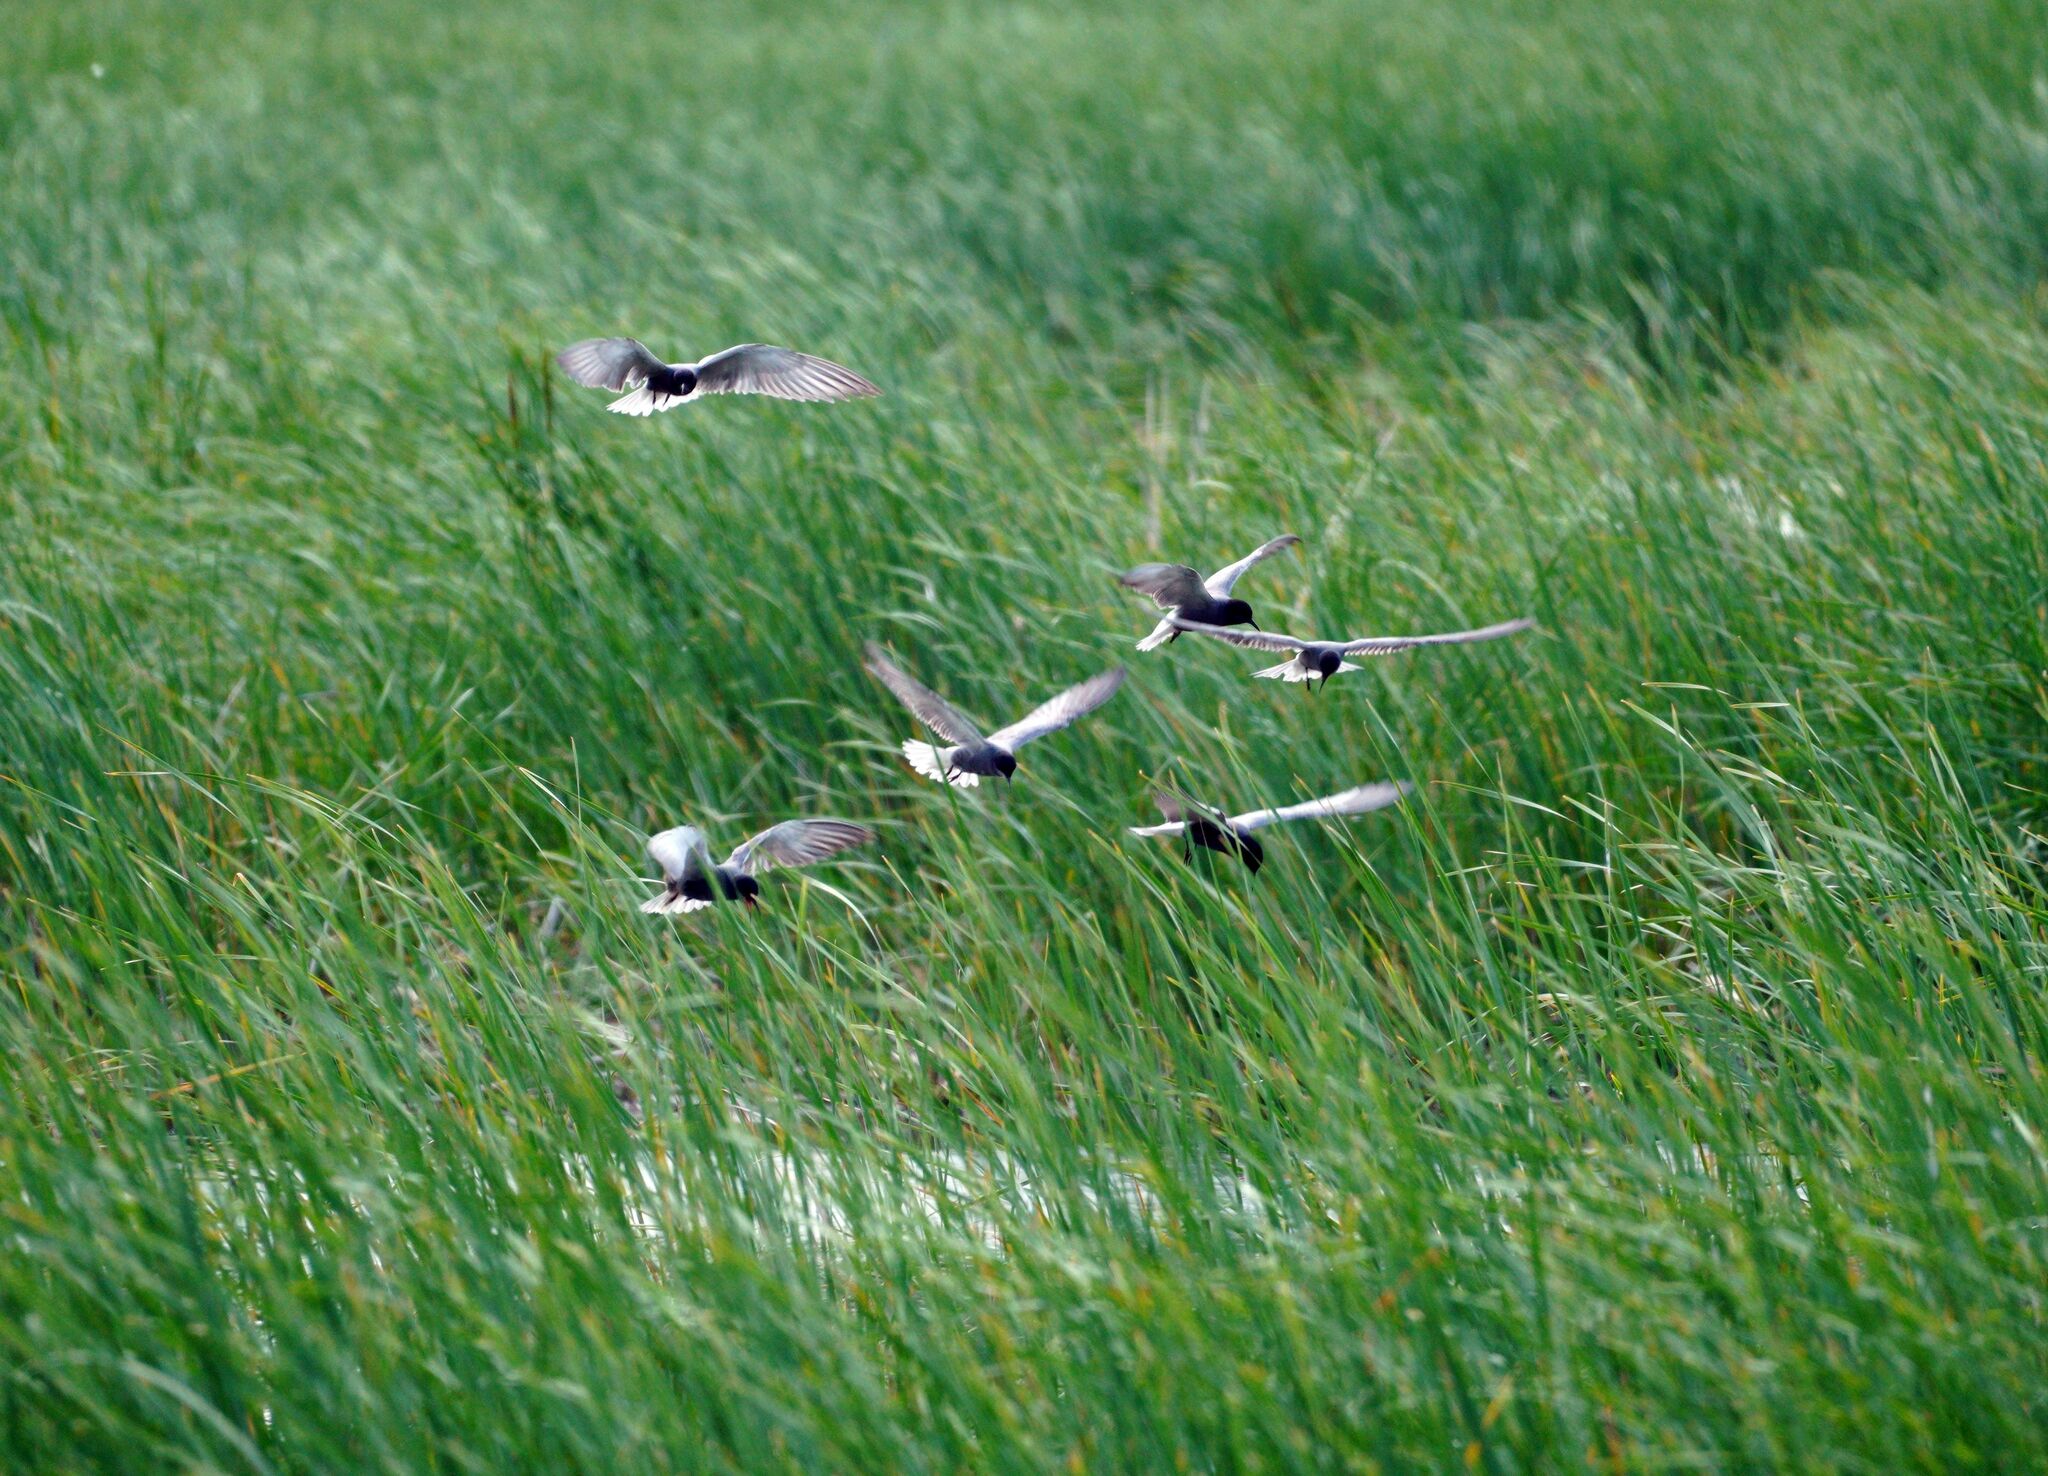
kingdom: Animalia
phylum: Chordata
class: Aves
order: Charadriiformes
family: Laridae
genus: Chlidonias
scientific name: Chlidonias niger
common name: Black tern
